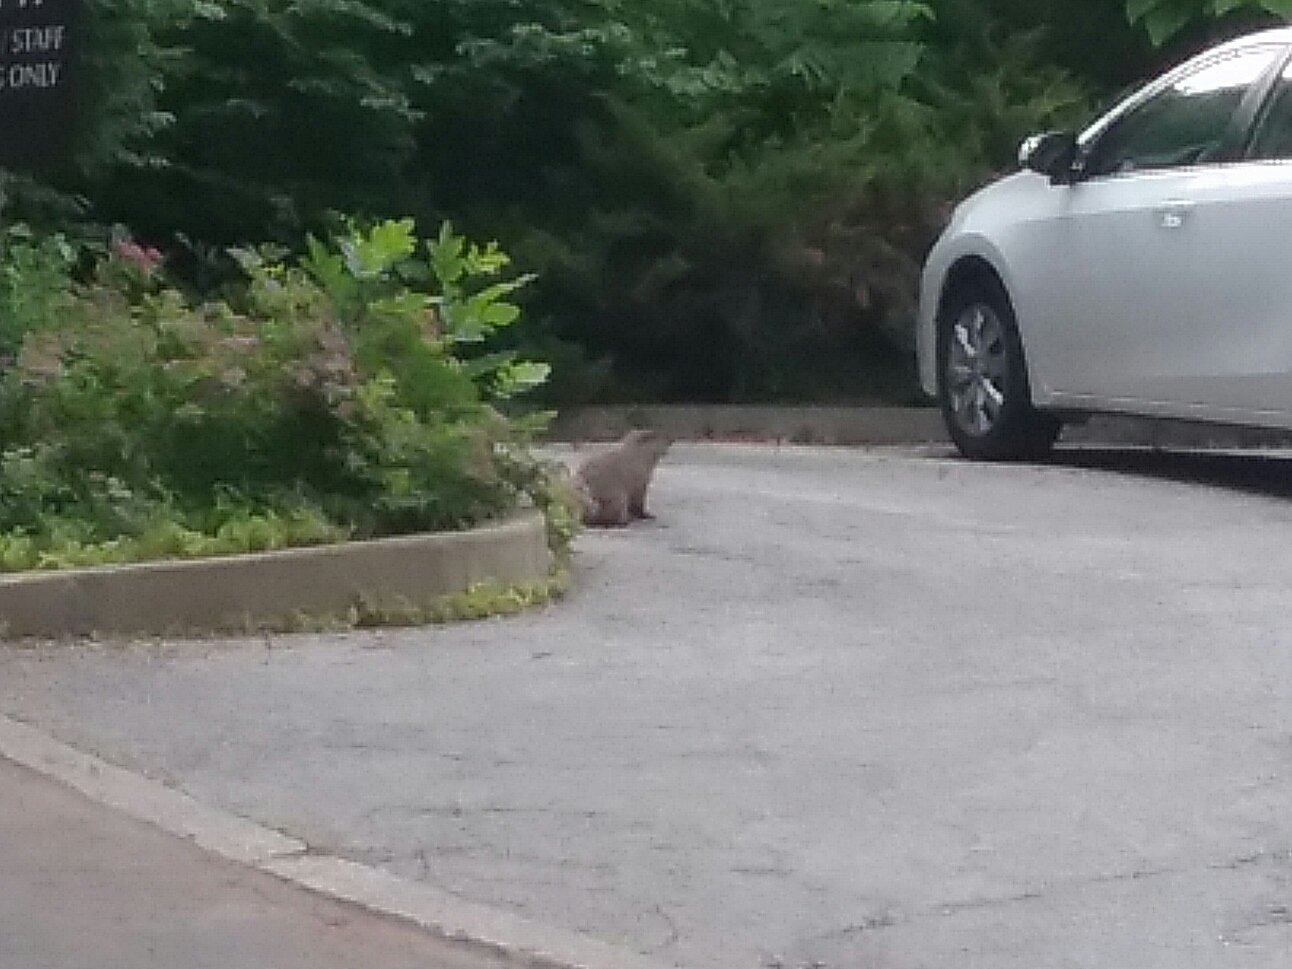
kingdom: Animalia
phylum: Chordata
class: Mammalia
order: Rodentia
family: Sciuridae
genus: Marmota
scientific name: Marmota monax
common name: Groundhog
